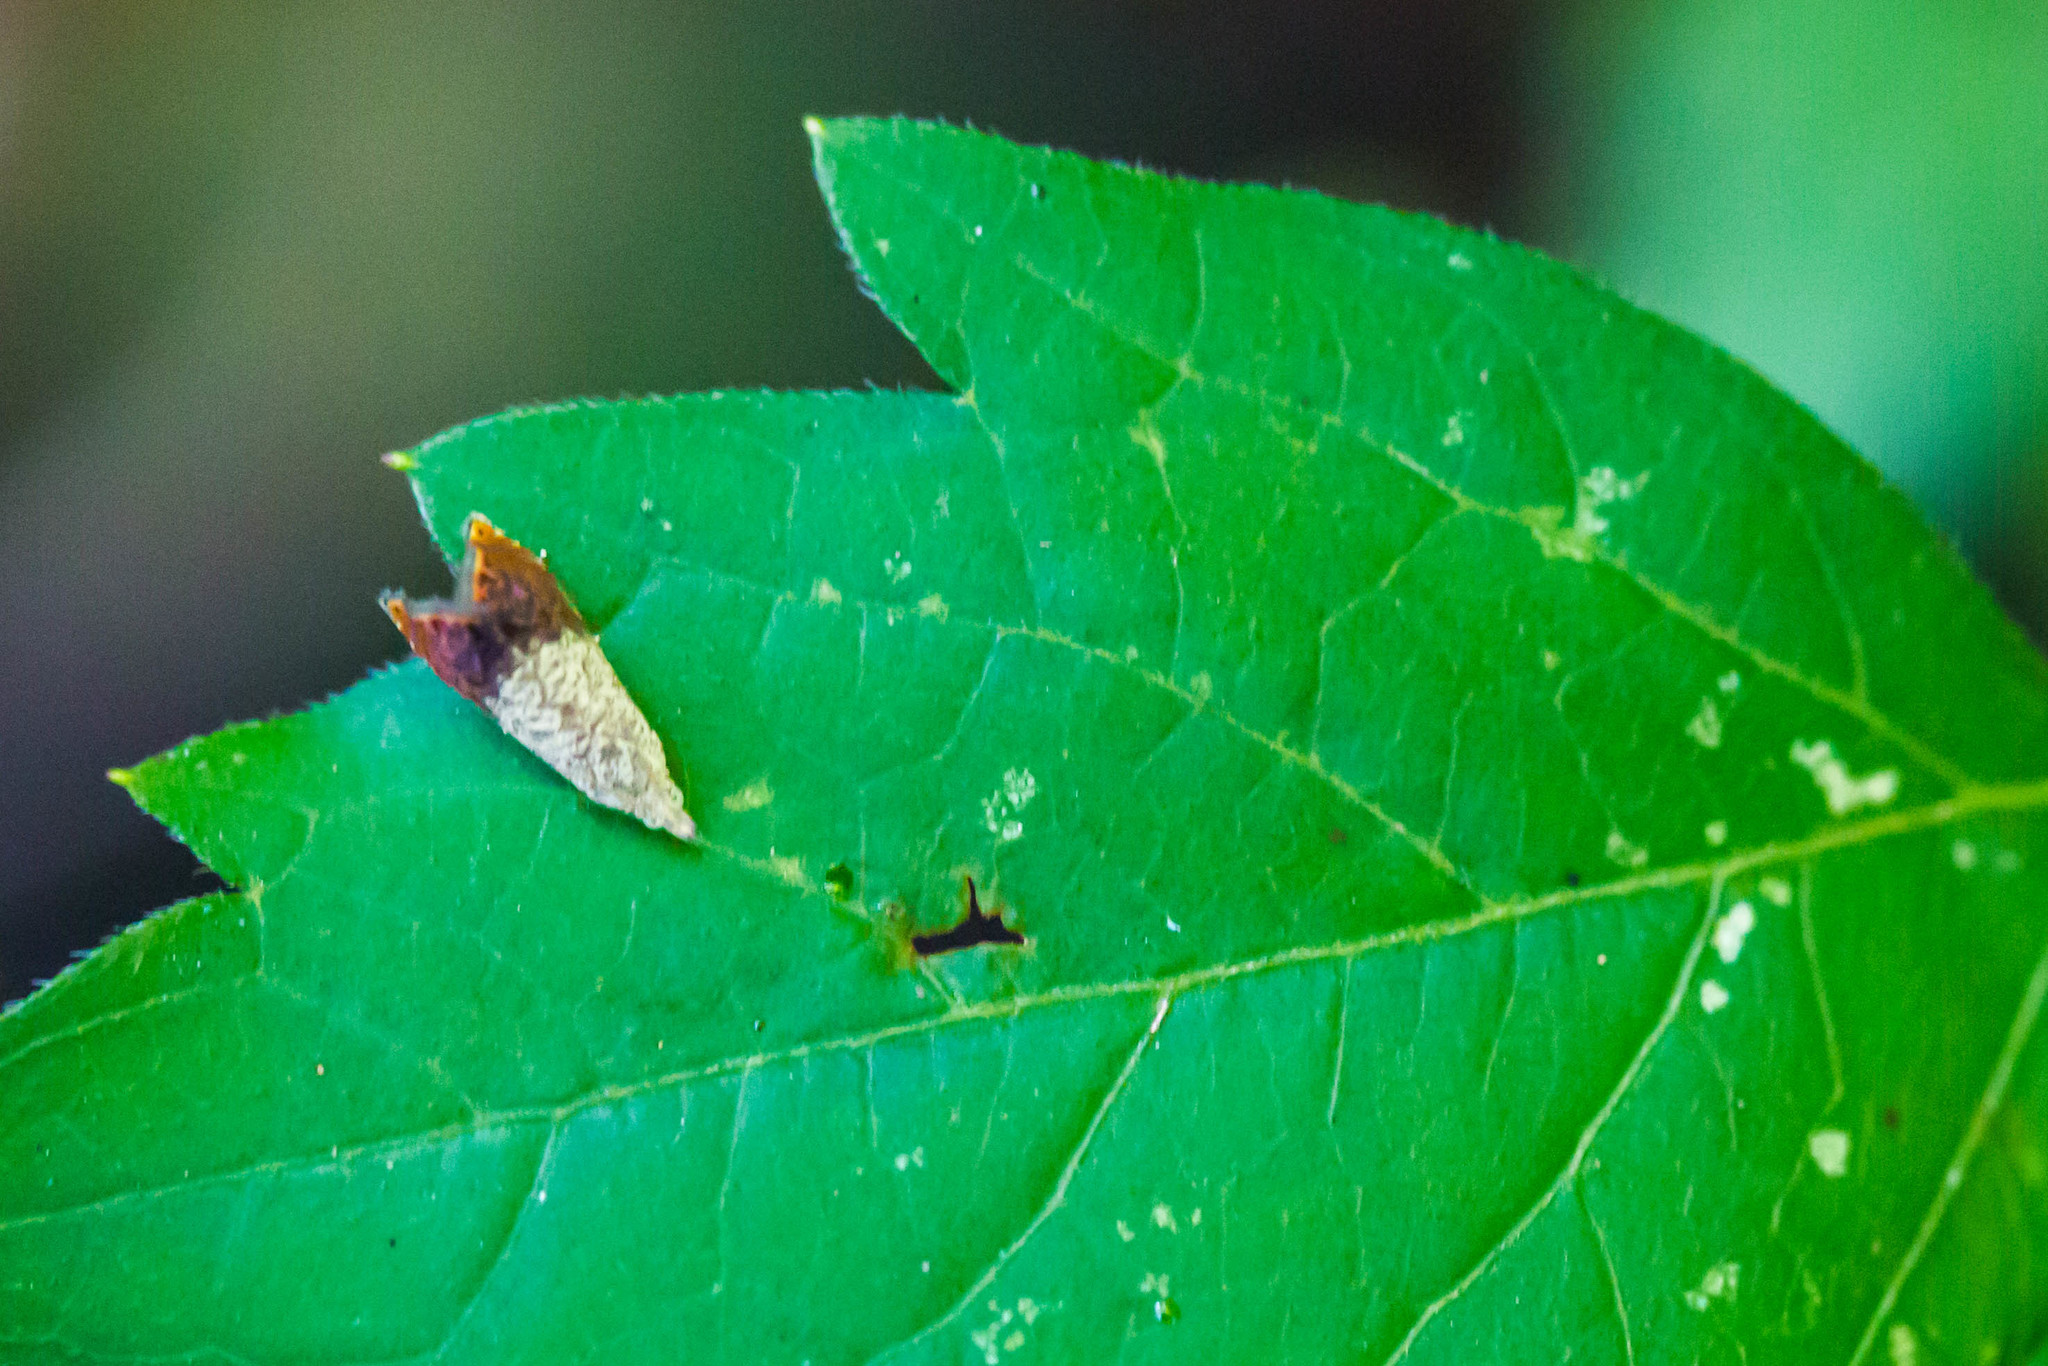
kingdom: Animalia
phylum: Arthropoda
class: Insecta
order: Lepidoptera
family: Tortricidae
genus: Talponia
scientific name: Talponia plummeriana
